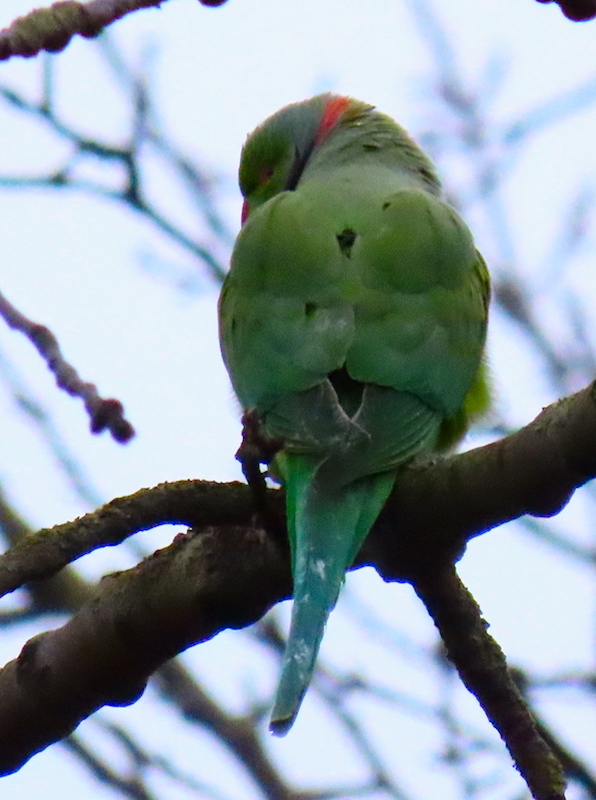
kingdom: Animalia
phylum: Chordata
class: Aves
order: Psittaciformes
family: Psittacidae
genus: Psittacula
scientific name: Psittacula krameri
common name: Rose-ringed parakeet
